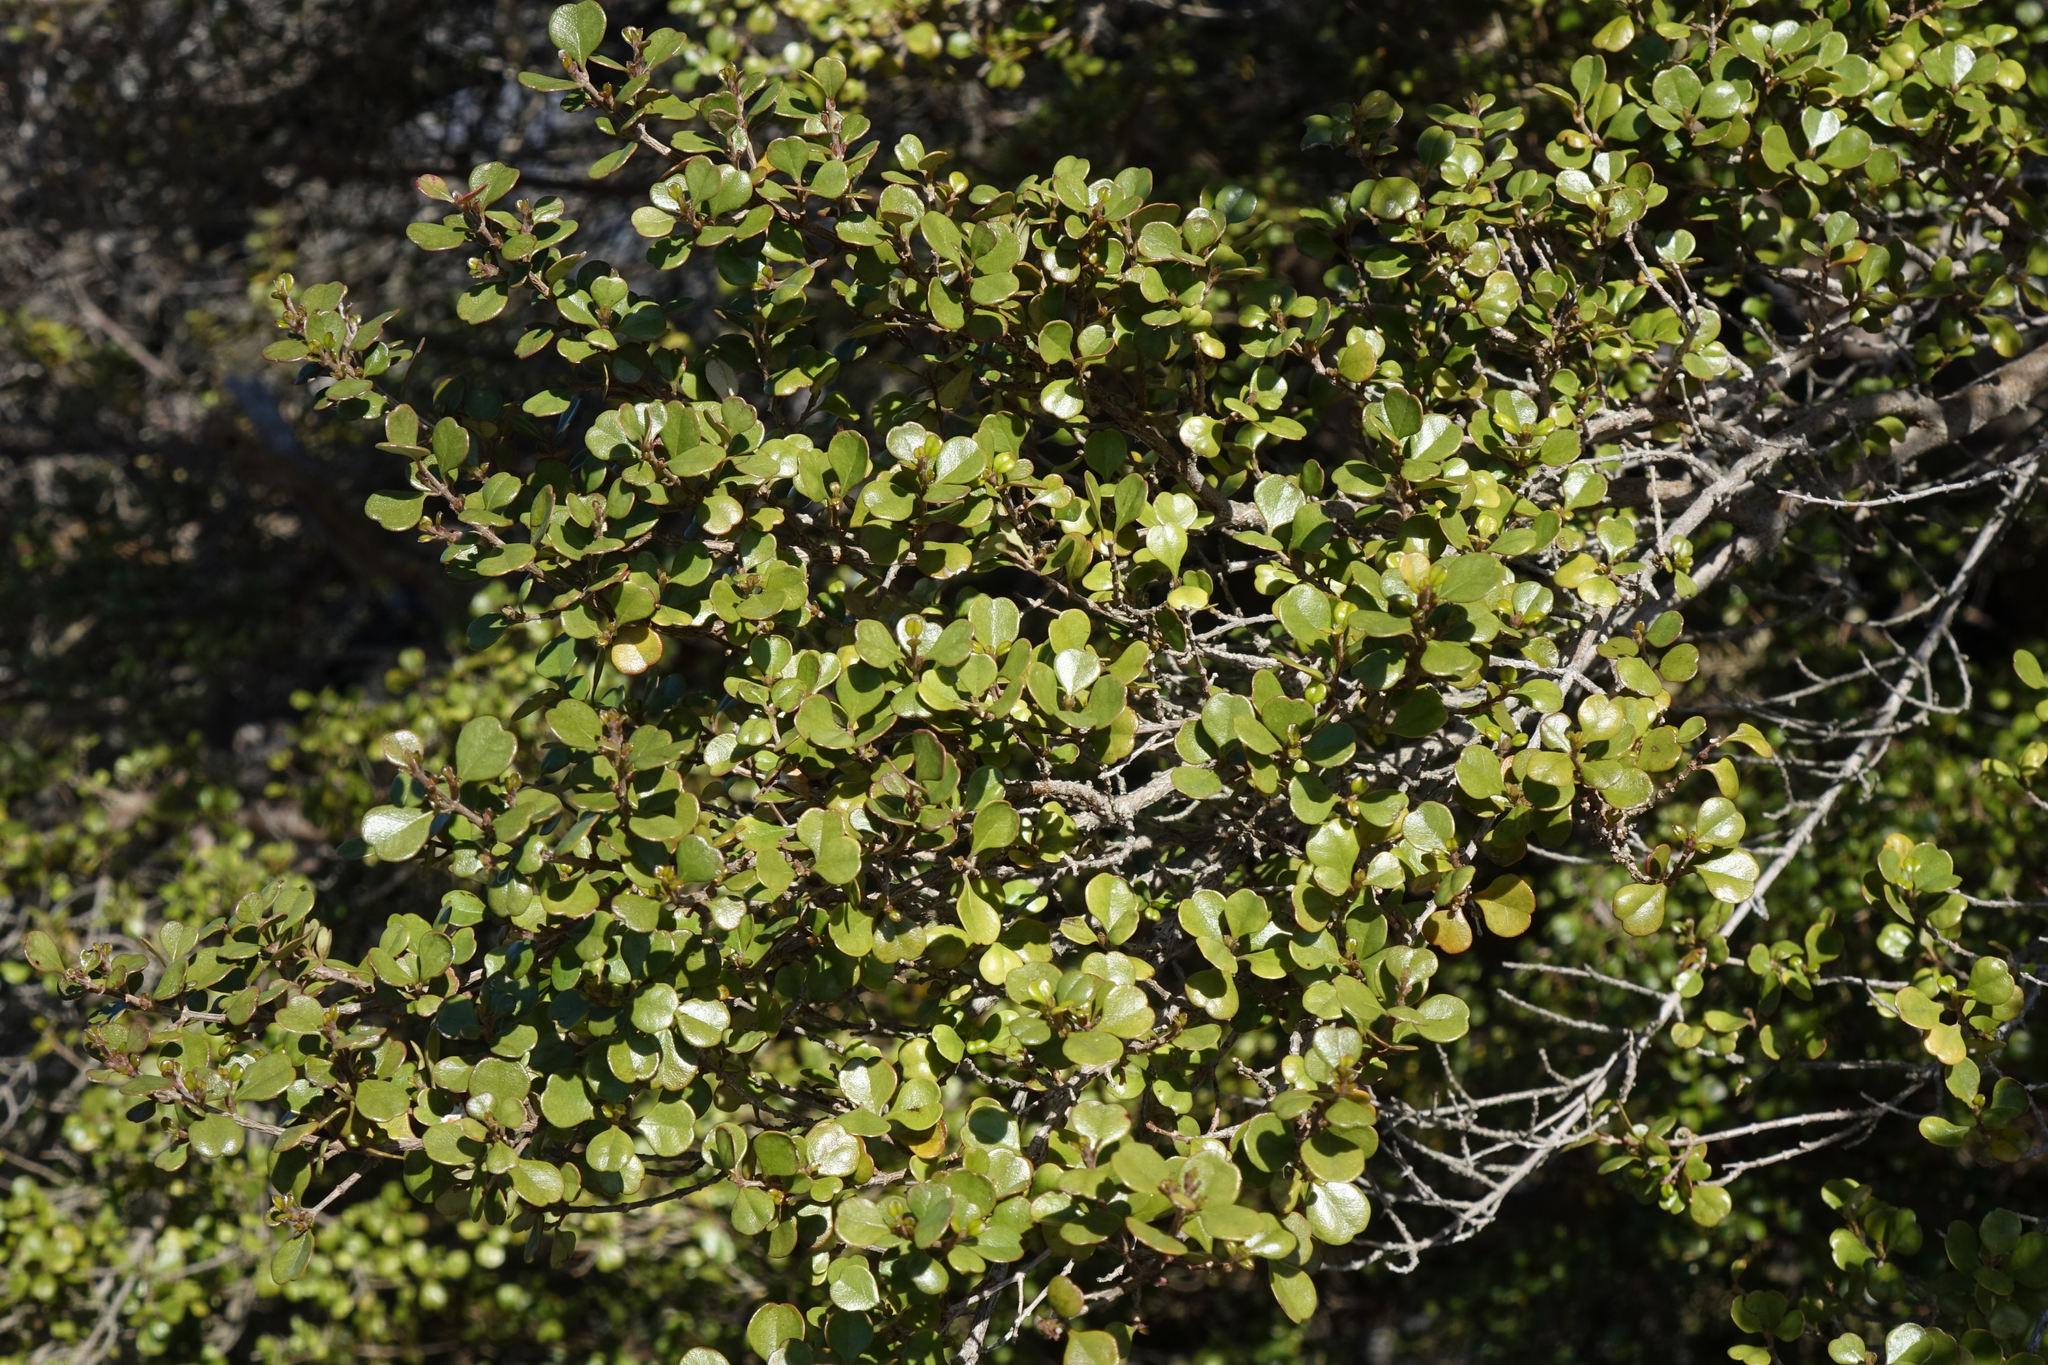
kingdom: Plantae
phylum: Tracheophyta
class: Magnoliopsida
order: Myrtales
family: Myrtaceae
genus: Lophomyrtus
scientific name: Lophomyrtus obcordata
